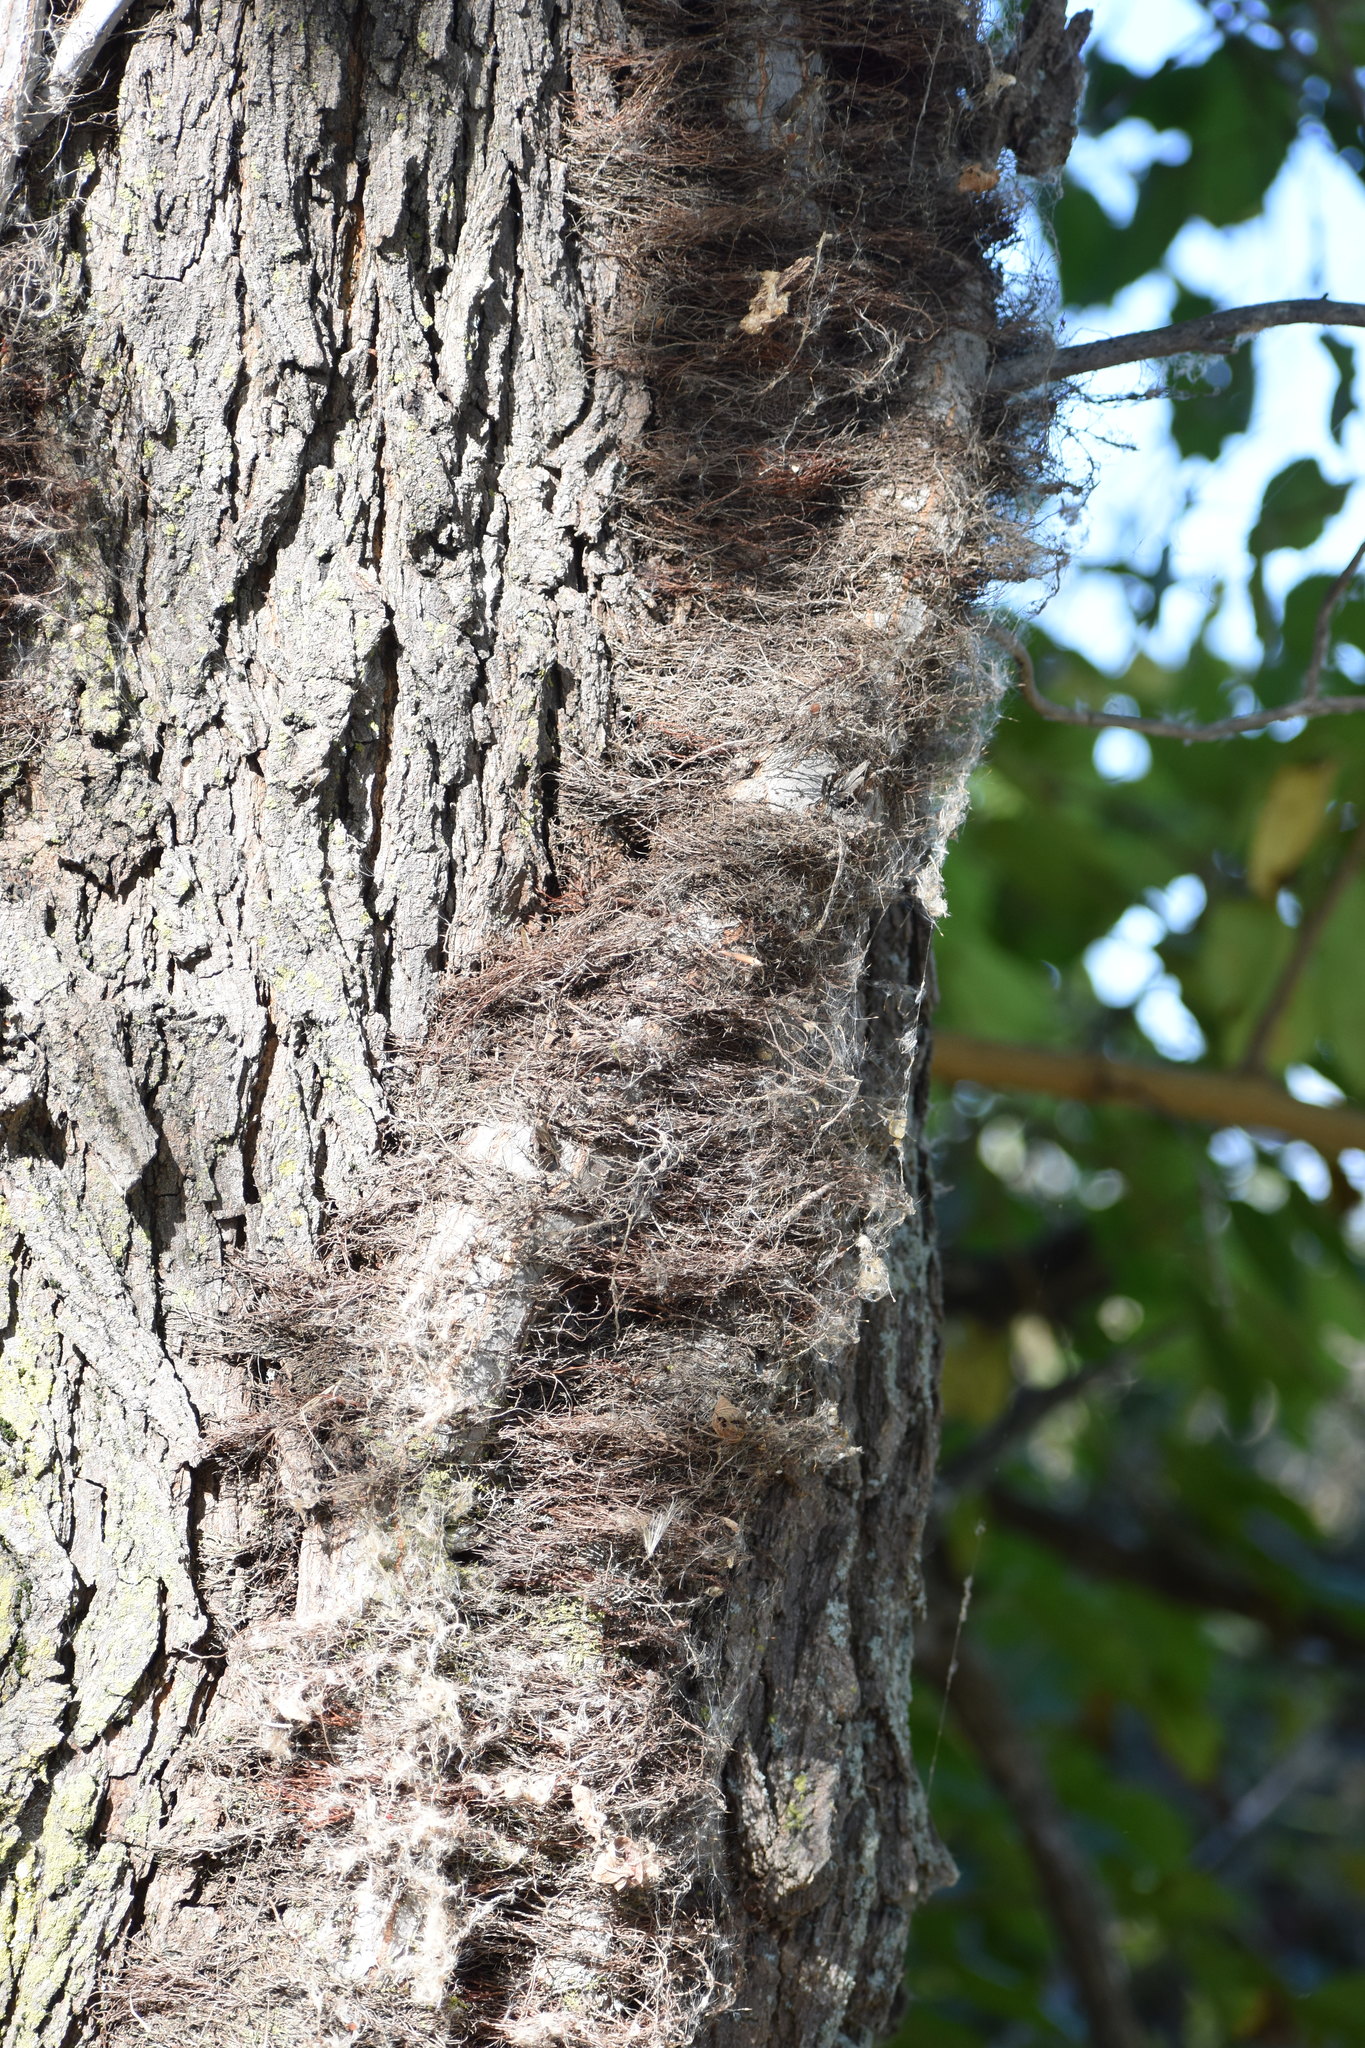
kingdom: Plantae
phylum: Tracheophyta
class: Magnoliopsida
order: Sapindales
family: Anacardiaceae
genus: Toxicodendron
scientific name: Toxicodendron radicans
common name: Poison ivy
